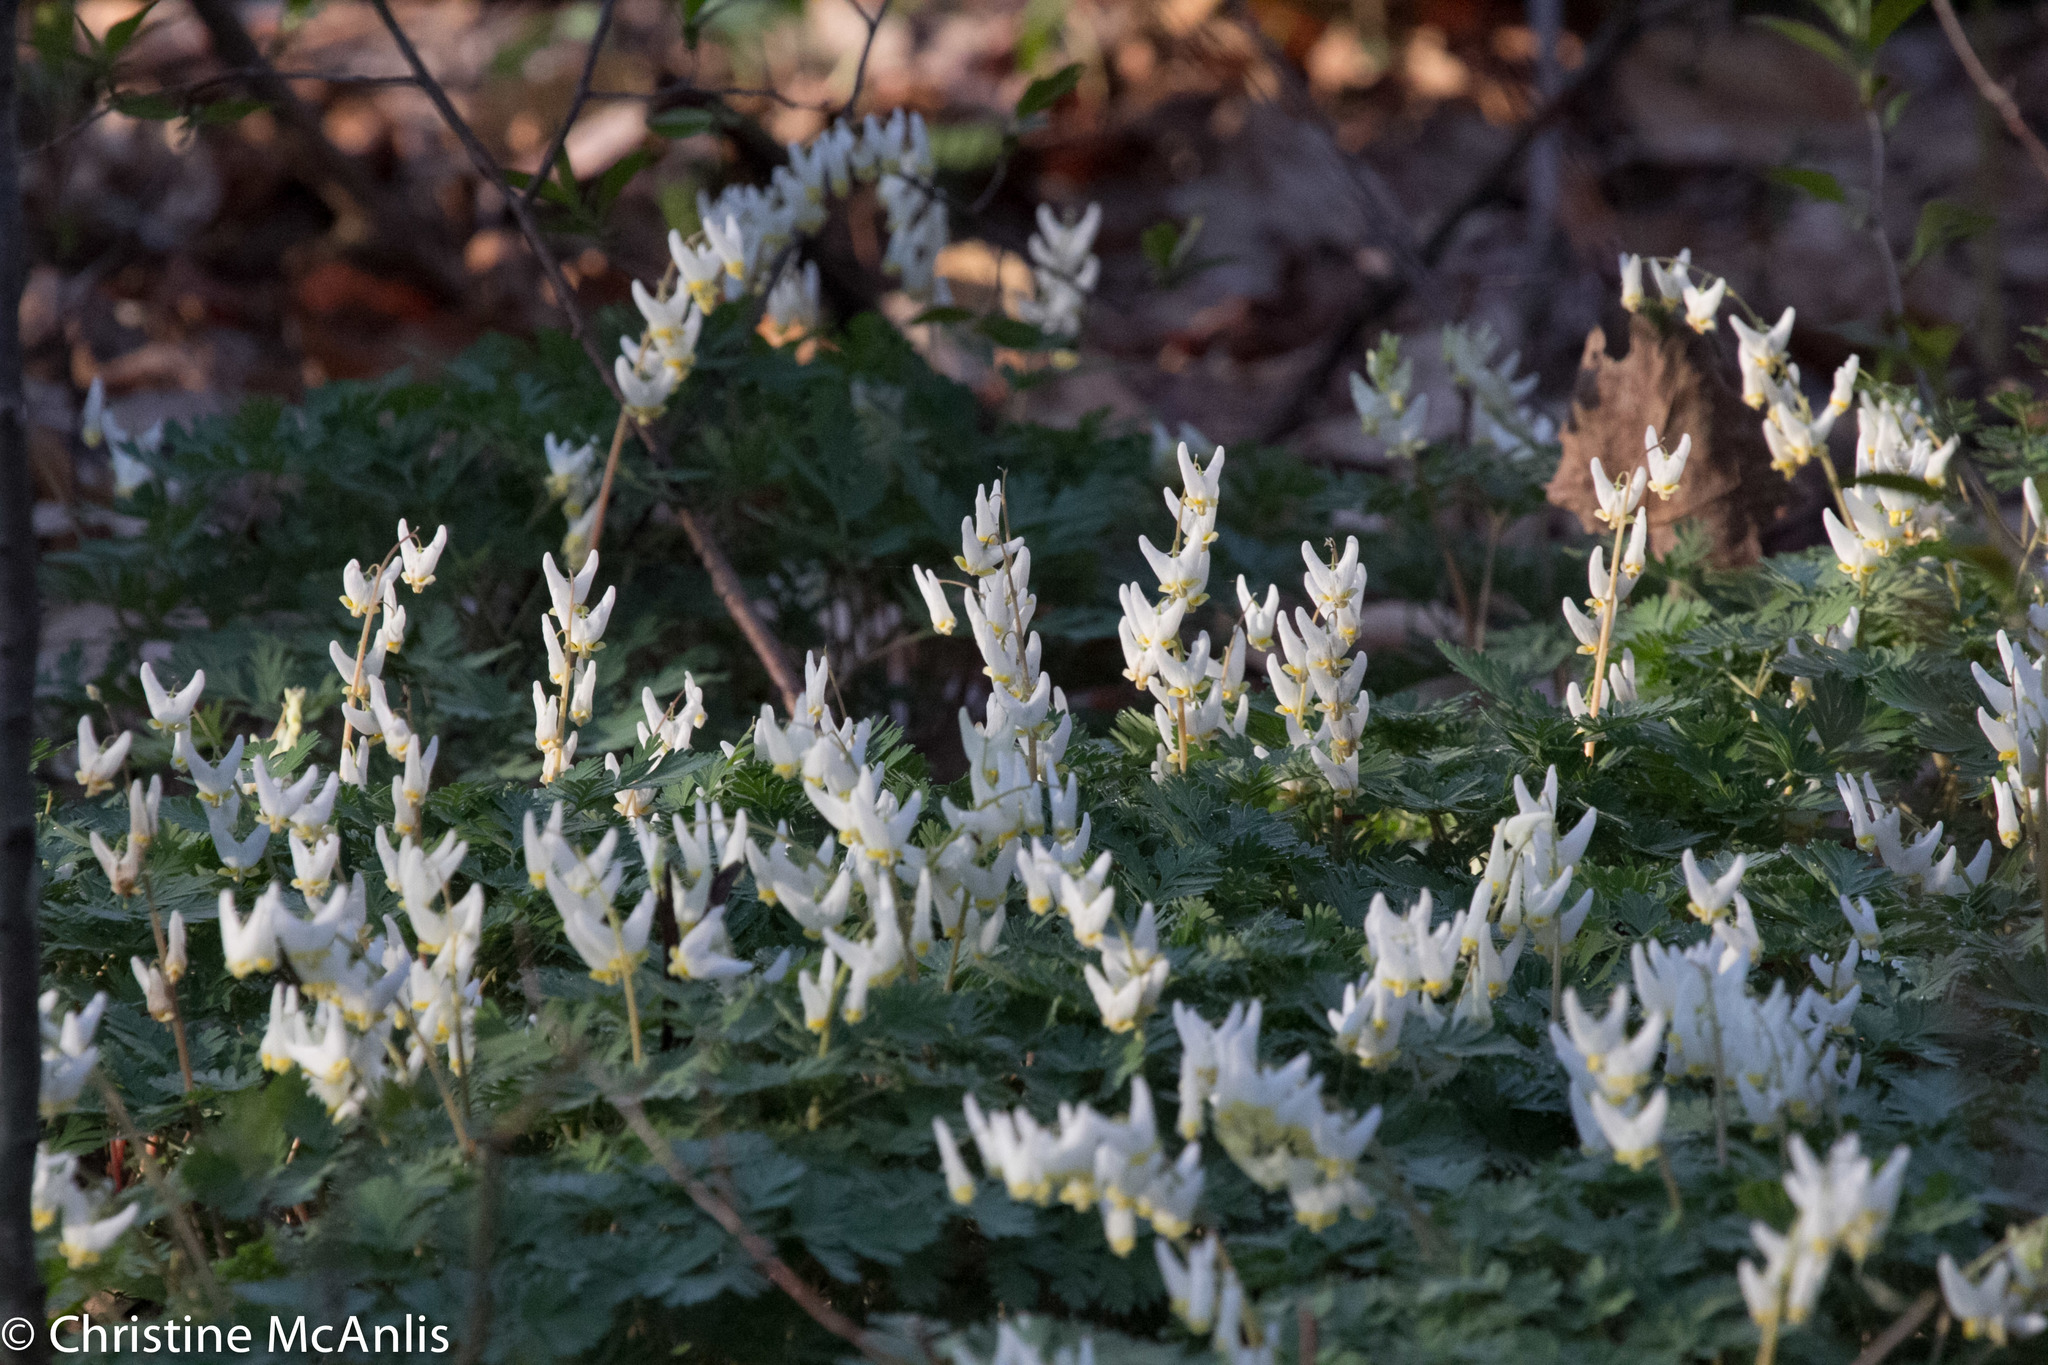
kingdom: Plantae
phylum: Tracheophyta
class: Magnoliopsida
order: Ranunculales
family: Papaveraceae
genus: Dicentra
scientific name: Dicentra cucullaria
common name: Dutchman's breeches
